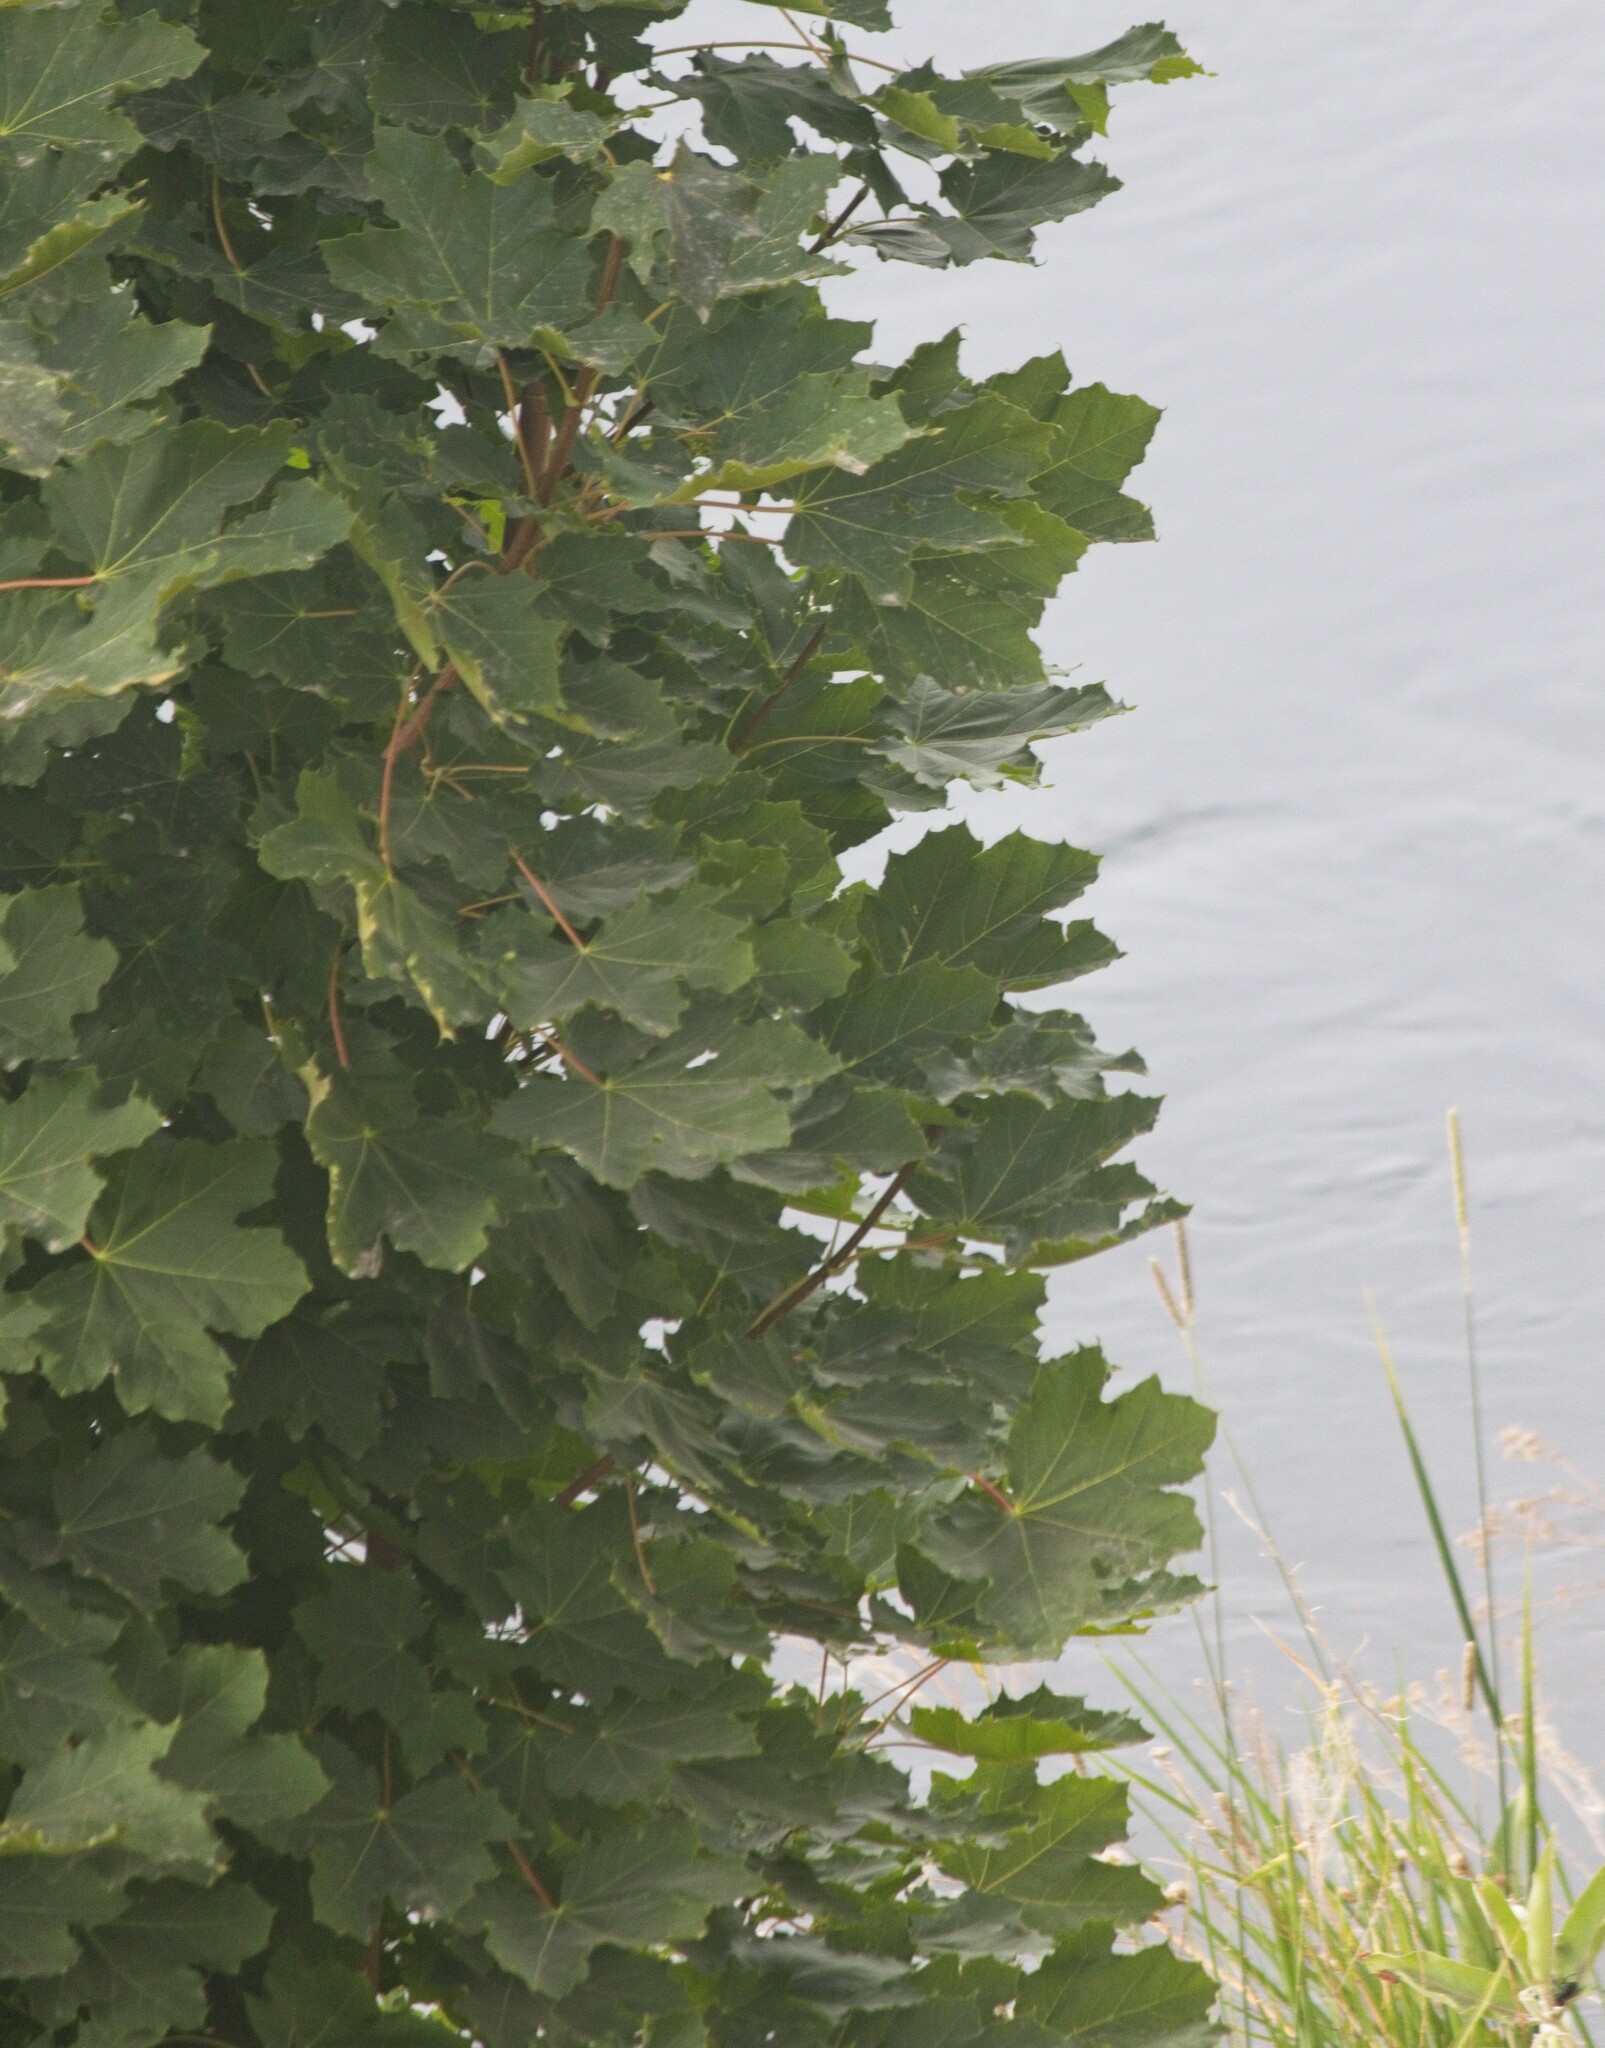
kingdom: Plantae
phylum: Tracheophyta
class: Magnoliopsida
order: Sapindales
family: Sapindaceae
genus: Acer
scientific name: Acer platanoides
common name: Norway maple
